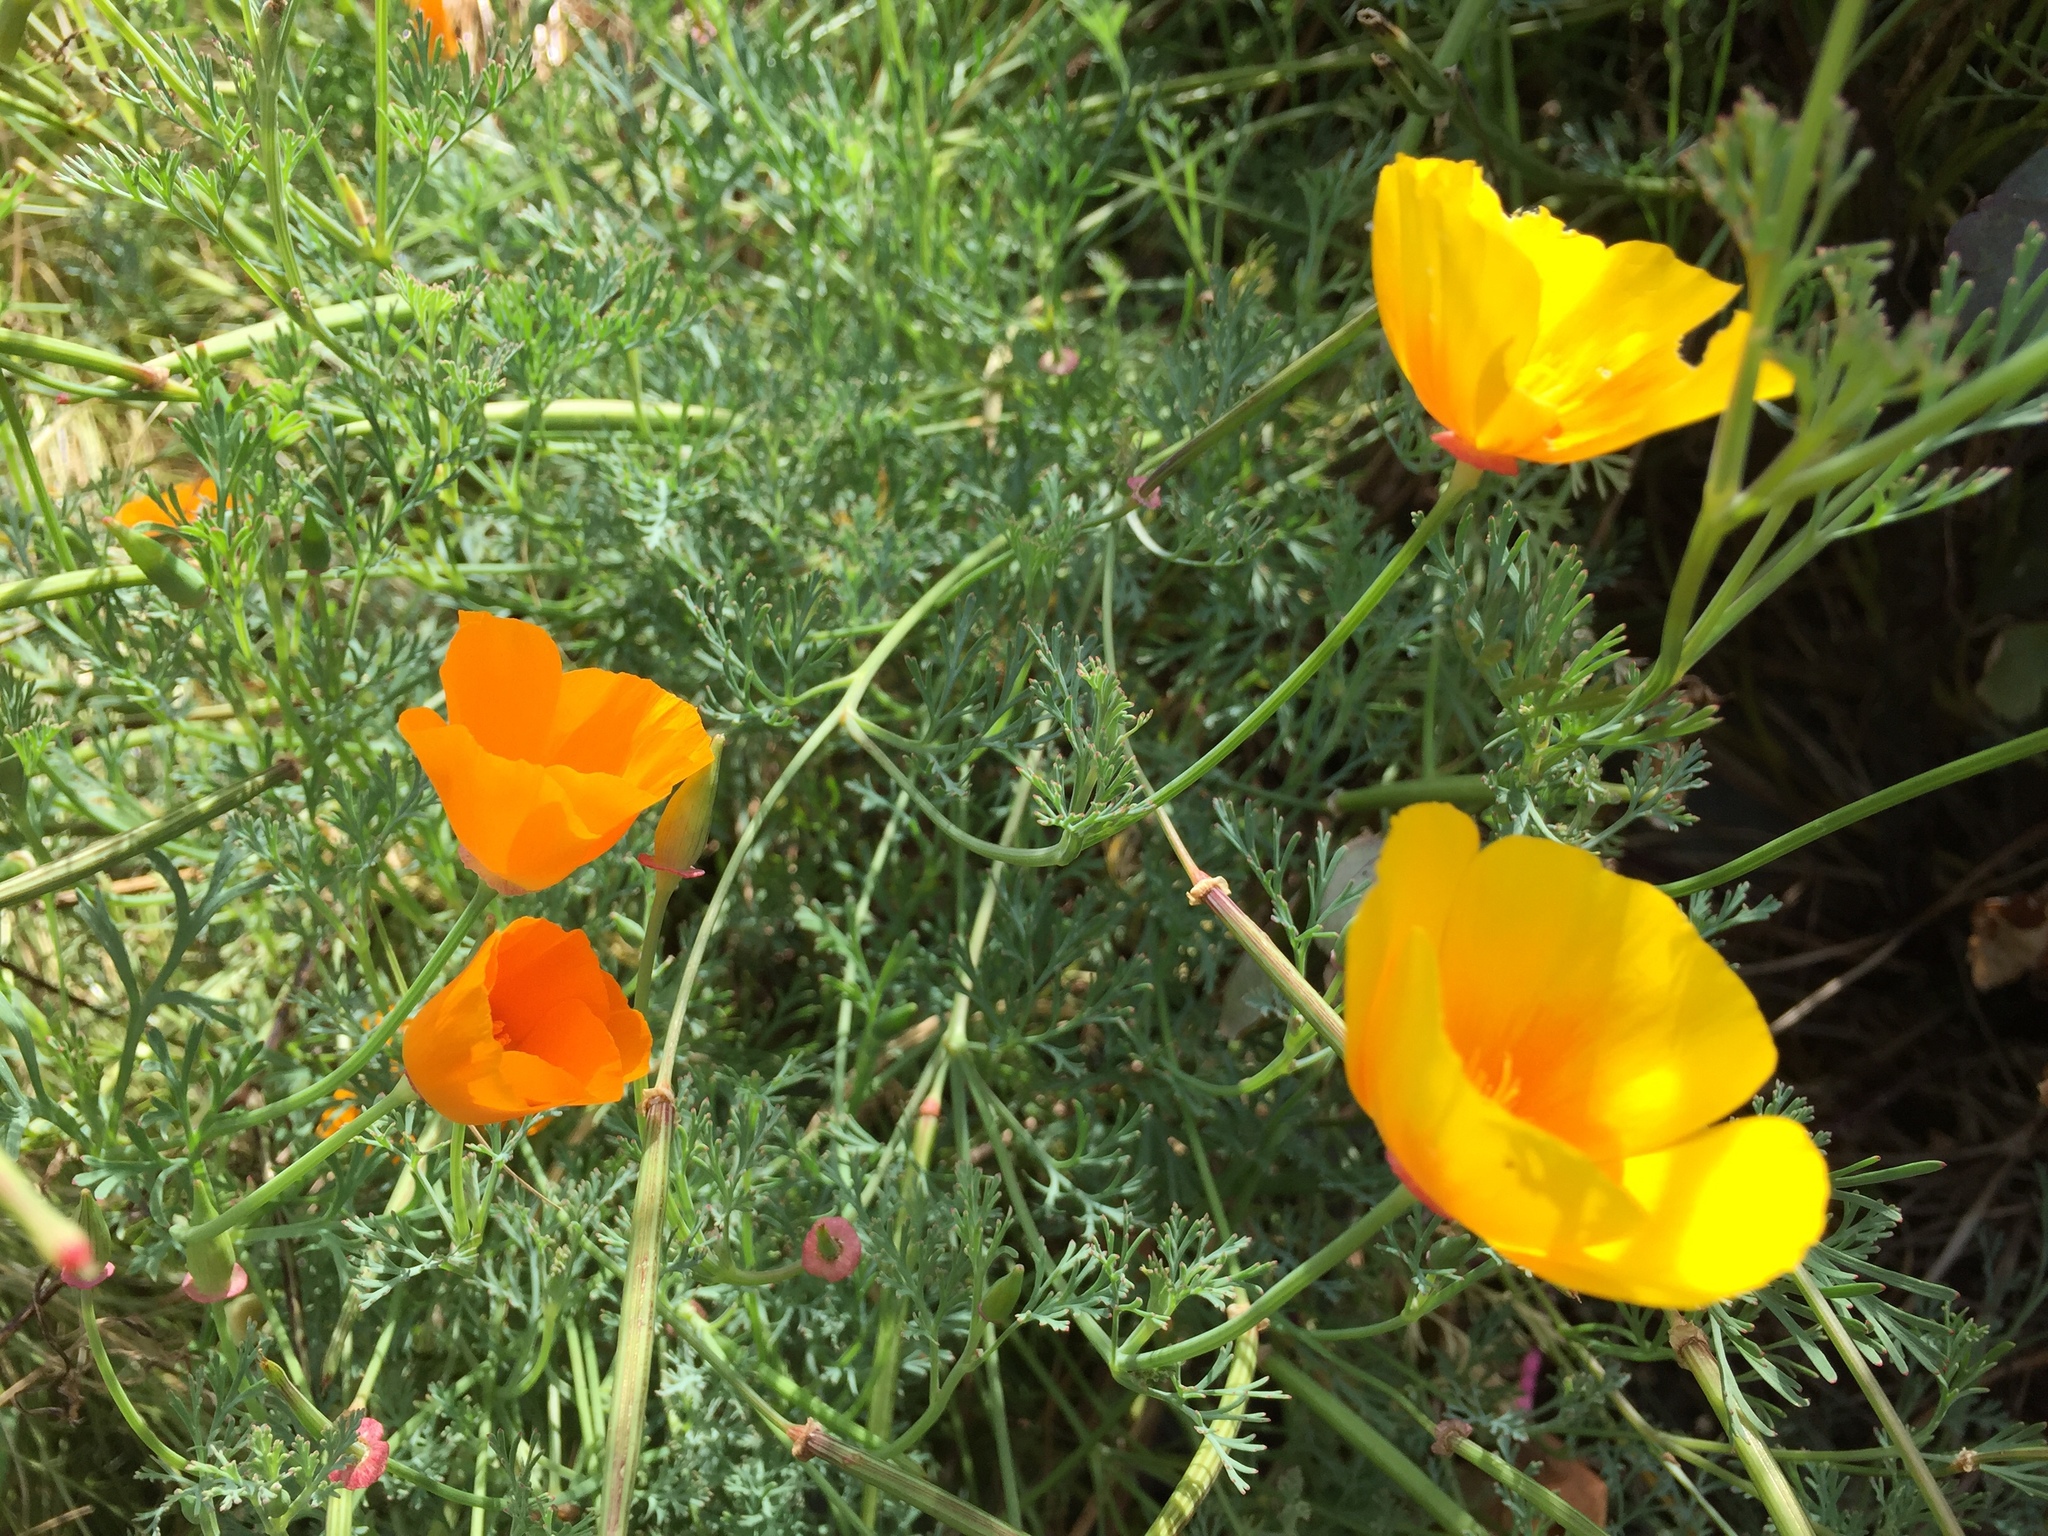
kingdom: Plantae
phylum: Tracheophyta
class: Magnoliopsida
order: Ranunculales
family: Papaveraceae
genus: Eschscholzia
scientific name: Eschscholzia californica
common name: California poppy
